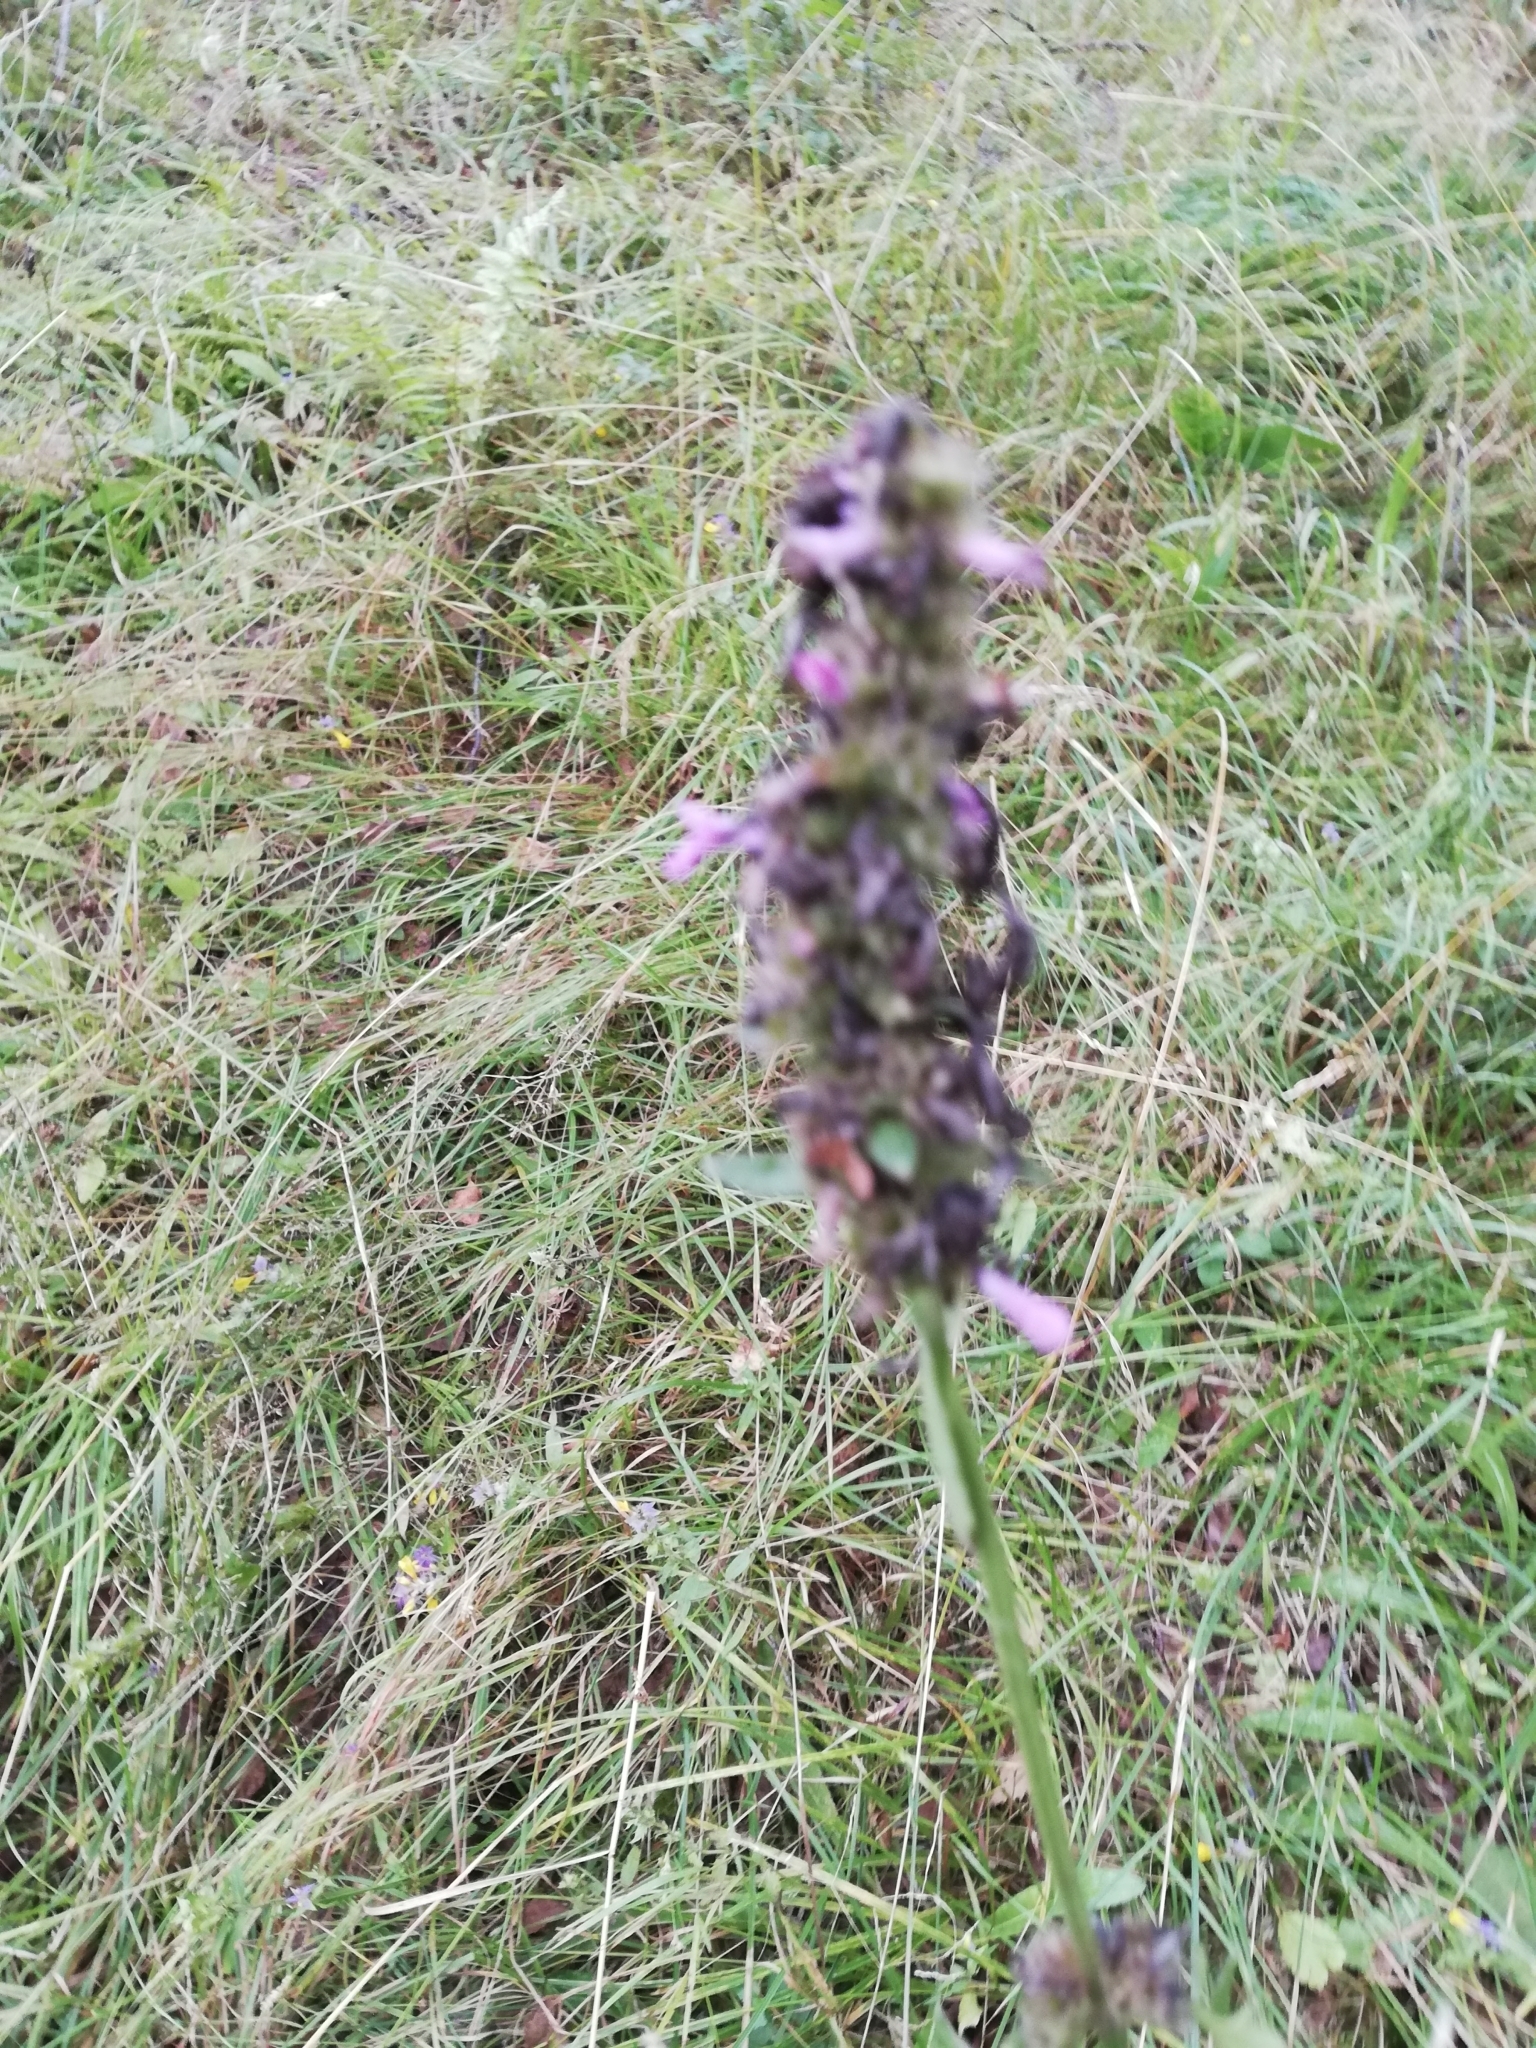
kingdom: Plantae
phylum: Tracheophyta
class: Magnoliopsida
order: Lamiales
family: Lamiaceae
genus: Betonica
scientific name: Betonica officinalis
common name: Bishop's-wort
